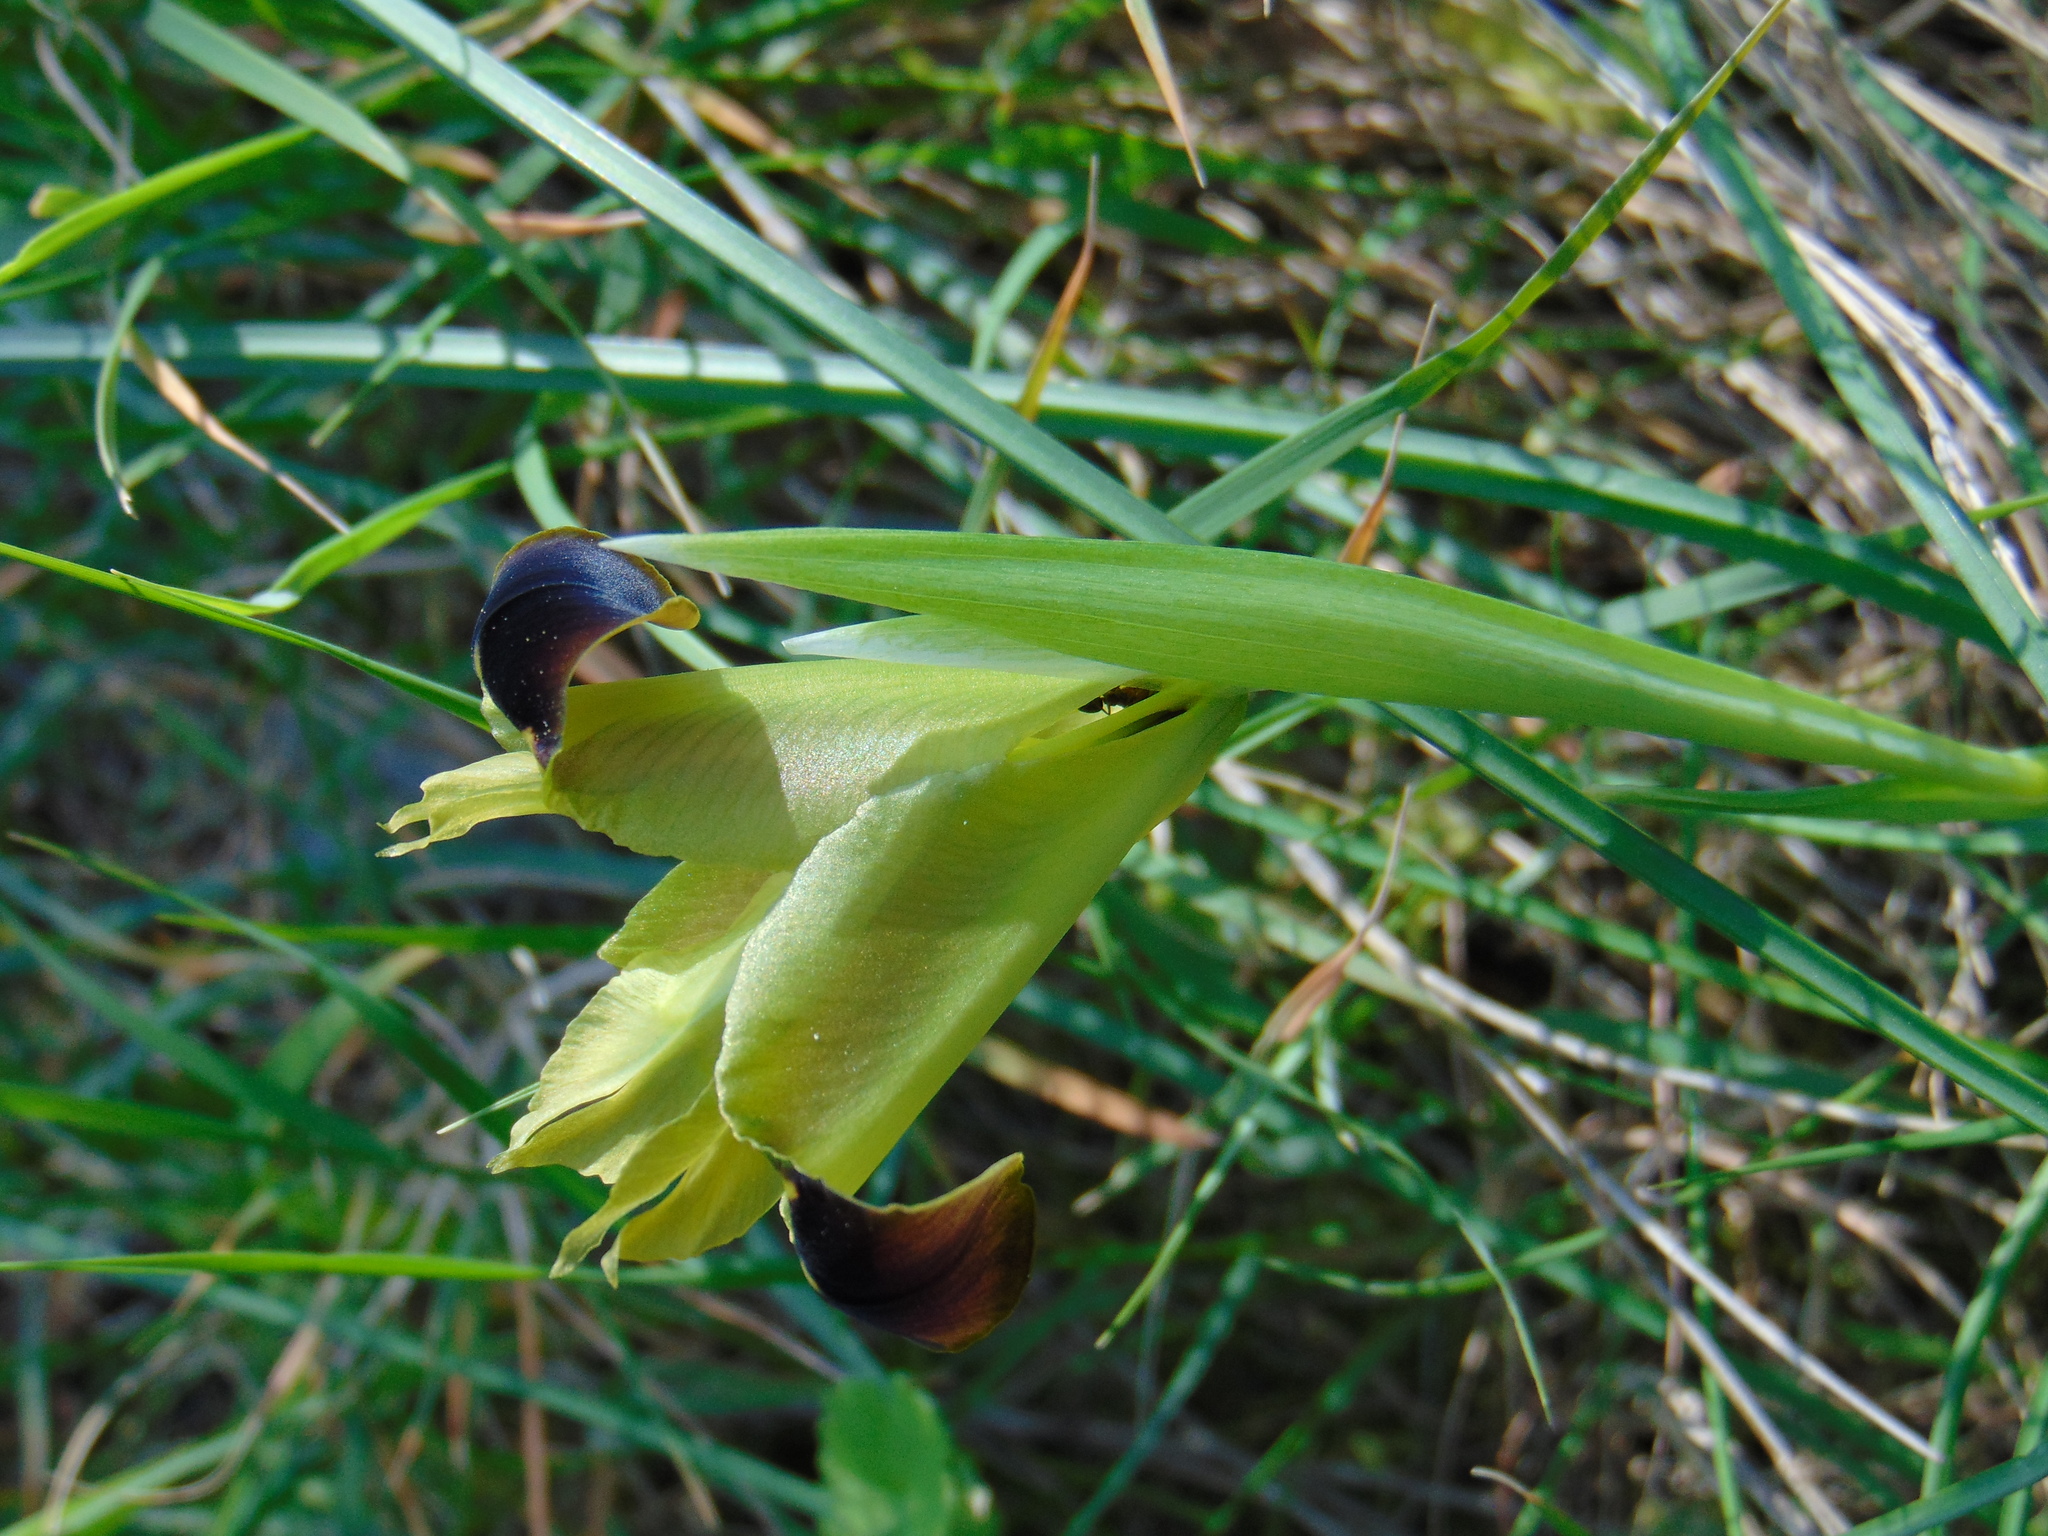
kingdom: Plantae
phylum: Tracheophyta
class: Liliopsida
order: Asparagales
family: Iridaceae
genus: Iris
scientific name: Iris tuberosa
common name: Snake's-head iris
